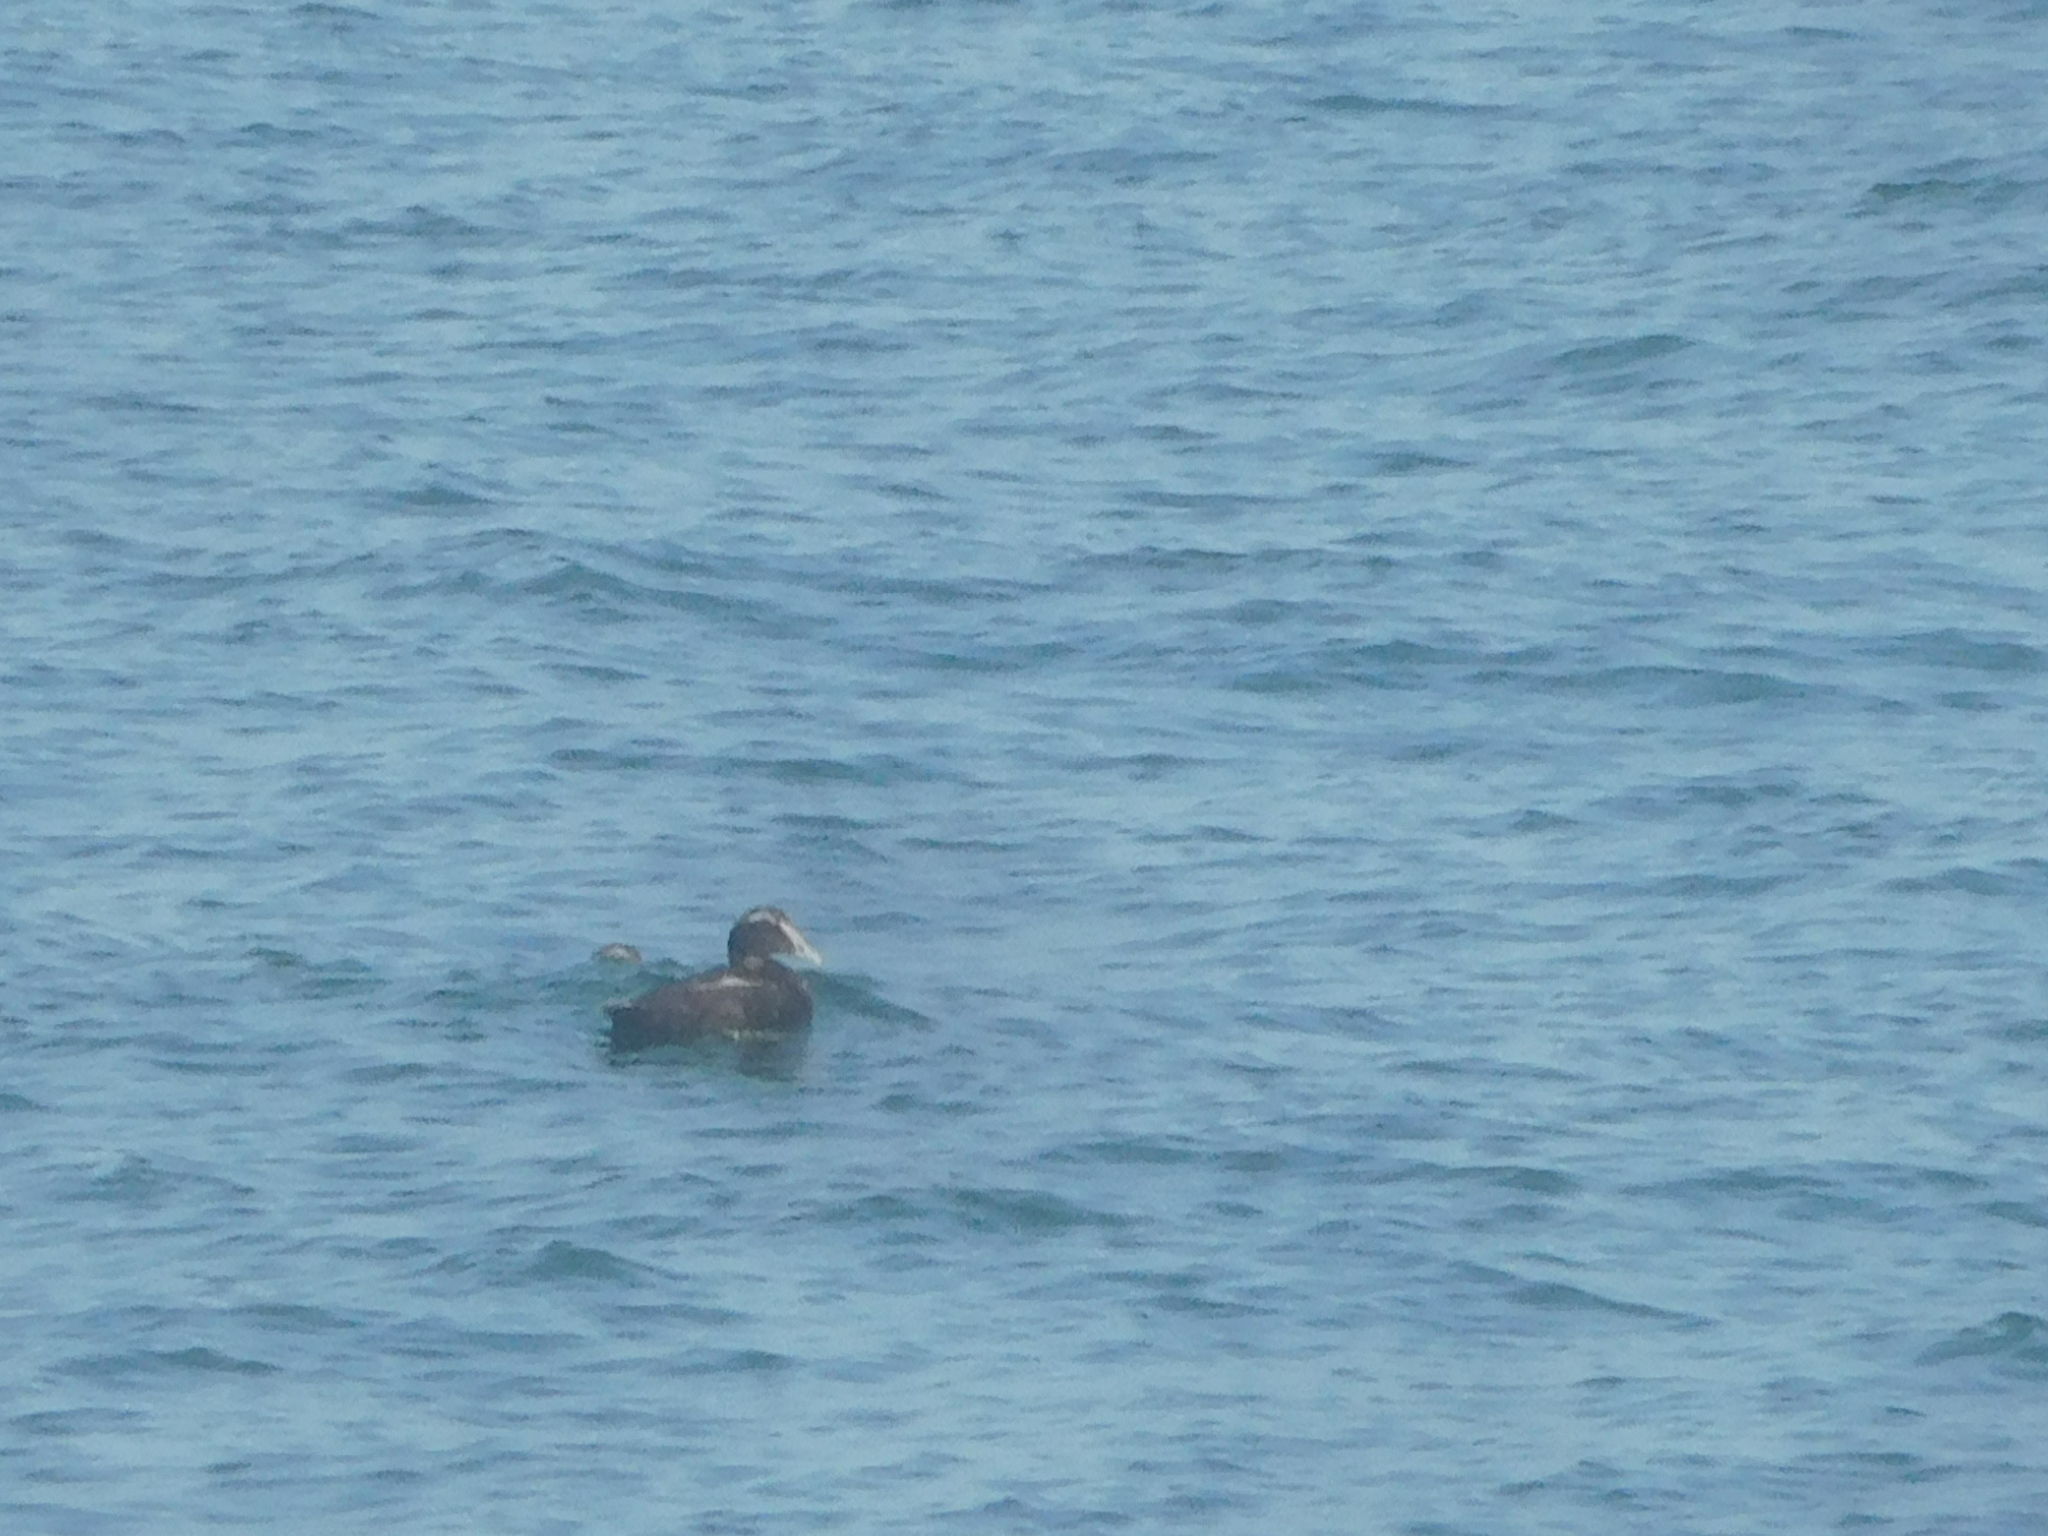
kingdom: Animalia
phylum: Chordata
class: Aves
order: Anseriformes
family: Anatidae
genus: Somateria
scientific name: Somateria mollissima
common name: Common eider
